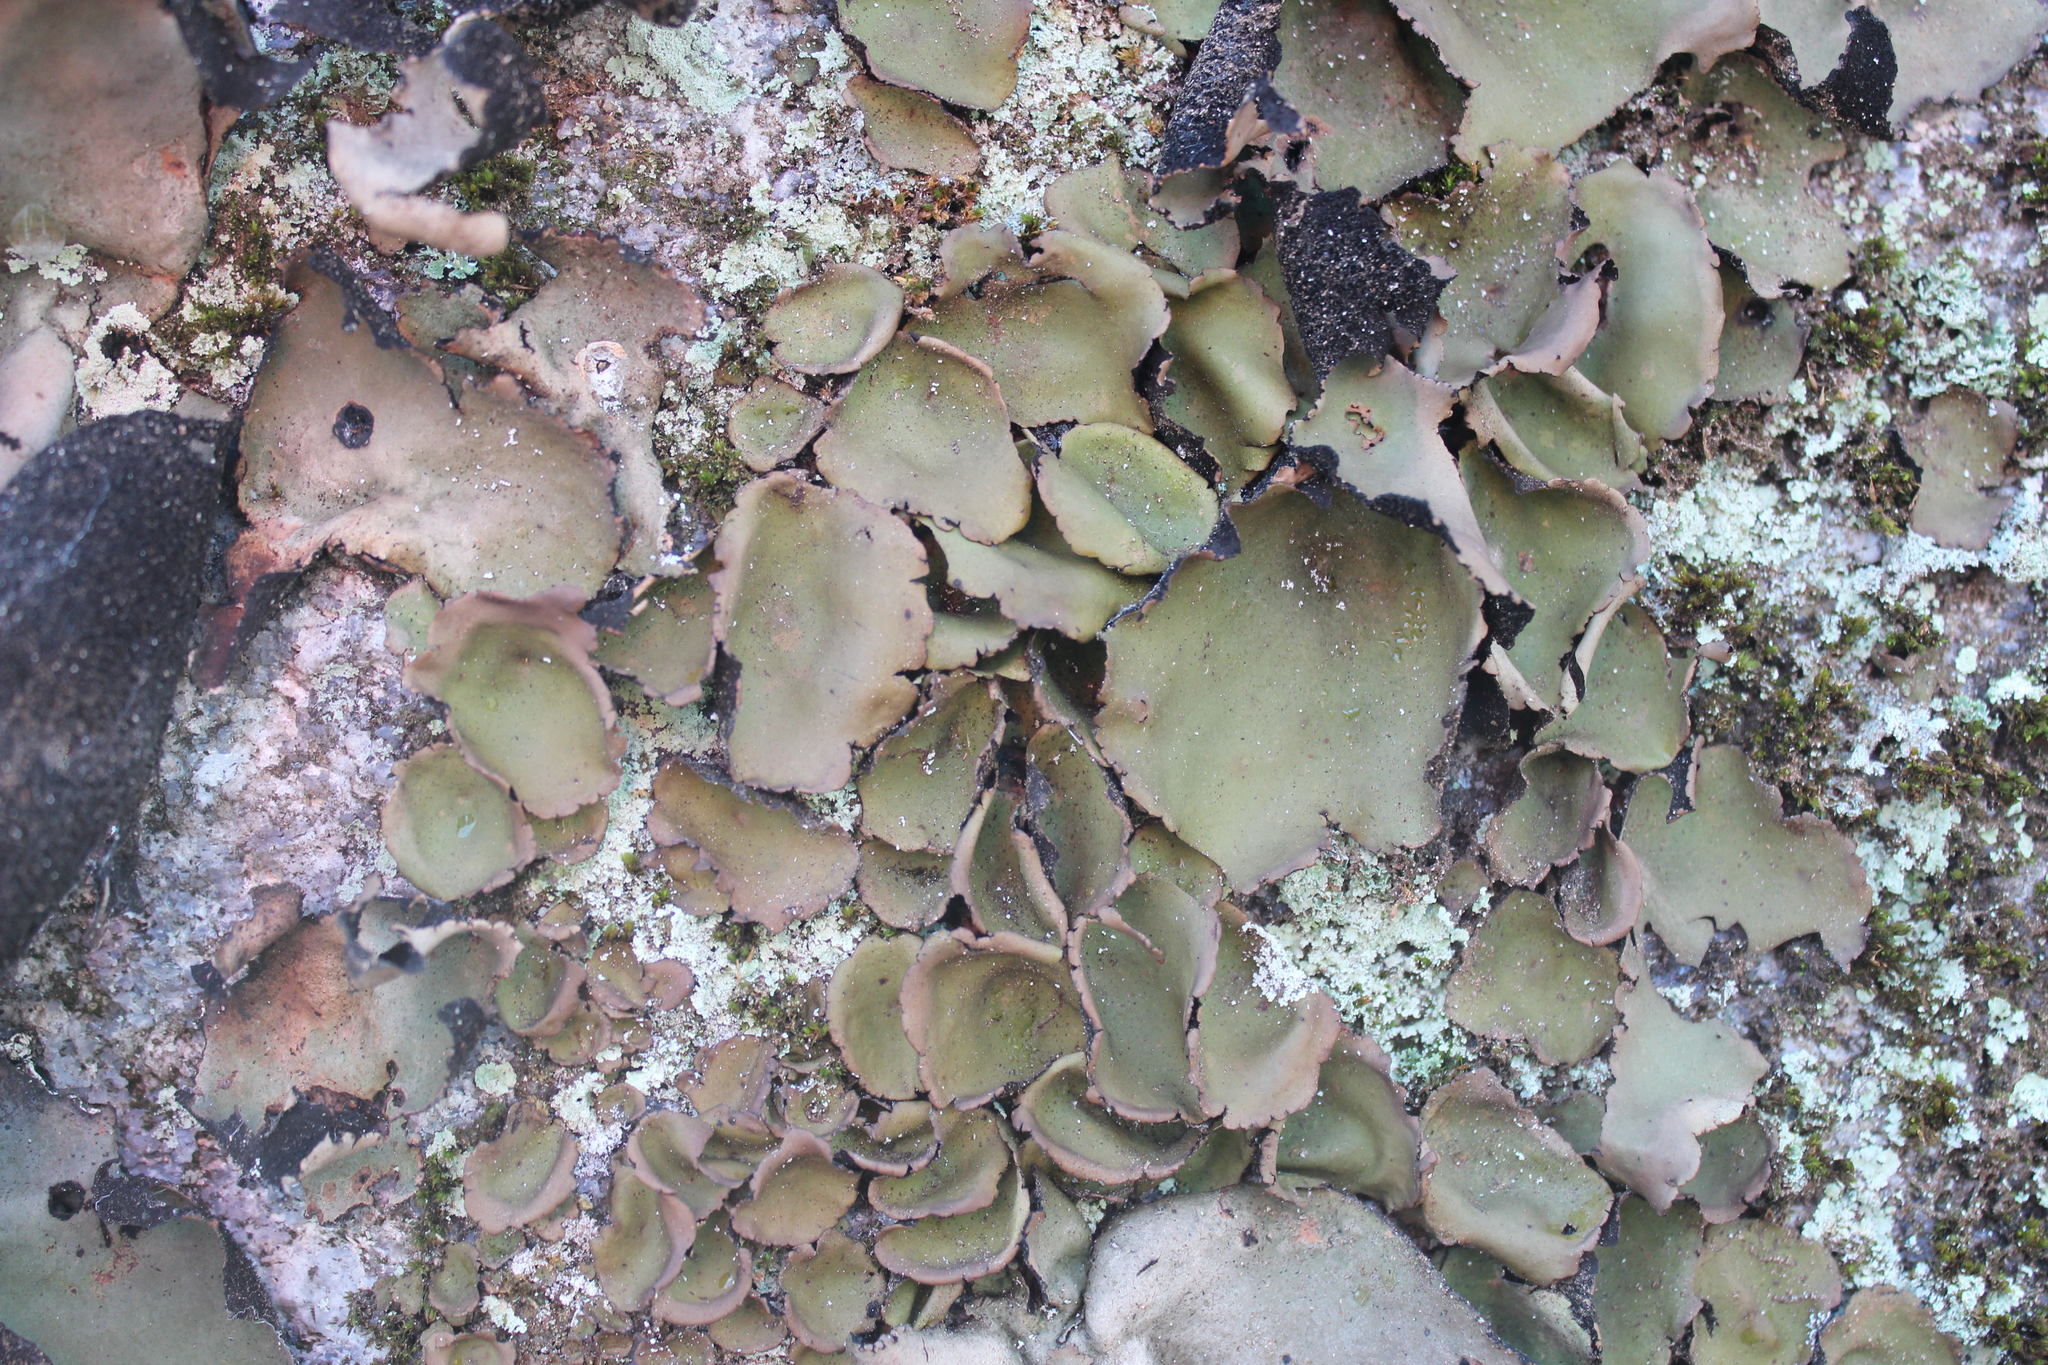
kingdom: Fungi
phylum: Ascomycota
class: Lecanoromycetes
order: Umbilicariales
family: Umbilicariaceae
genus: Umbilicaria
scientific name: Umbilicaria mammulata
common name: Smooth rock tripe
